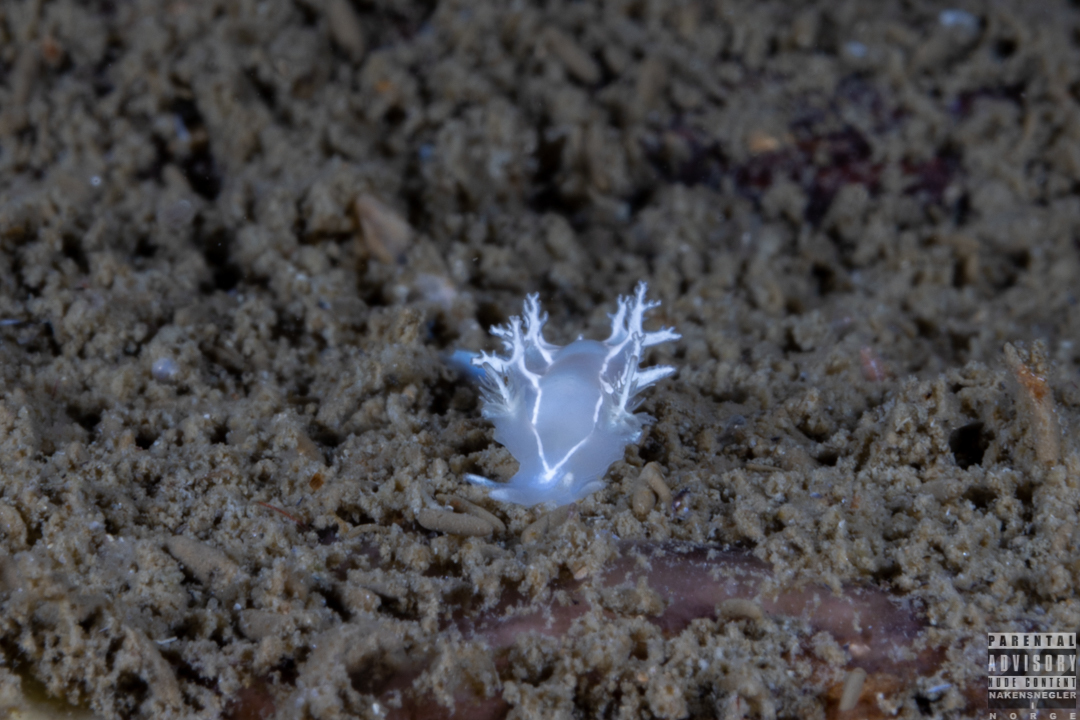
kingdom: Animalia
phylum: Mollusca
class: Gastropoda
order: Nudibranchia
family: Tritoniidae
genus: Duvaucelia
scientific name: Duvaucelia lineata
